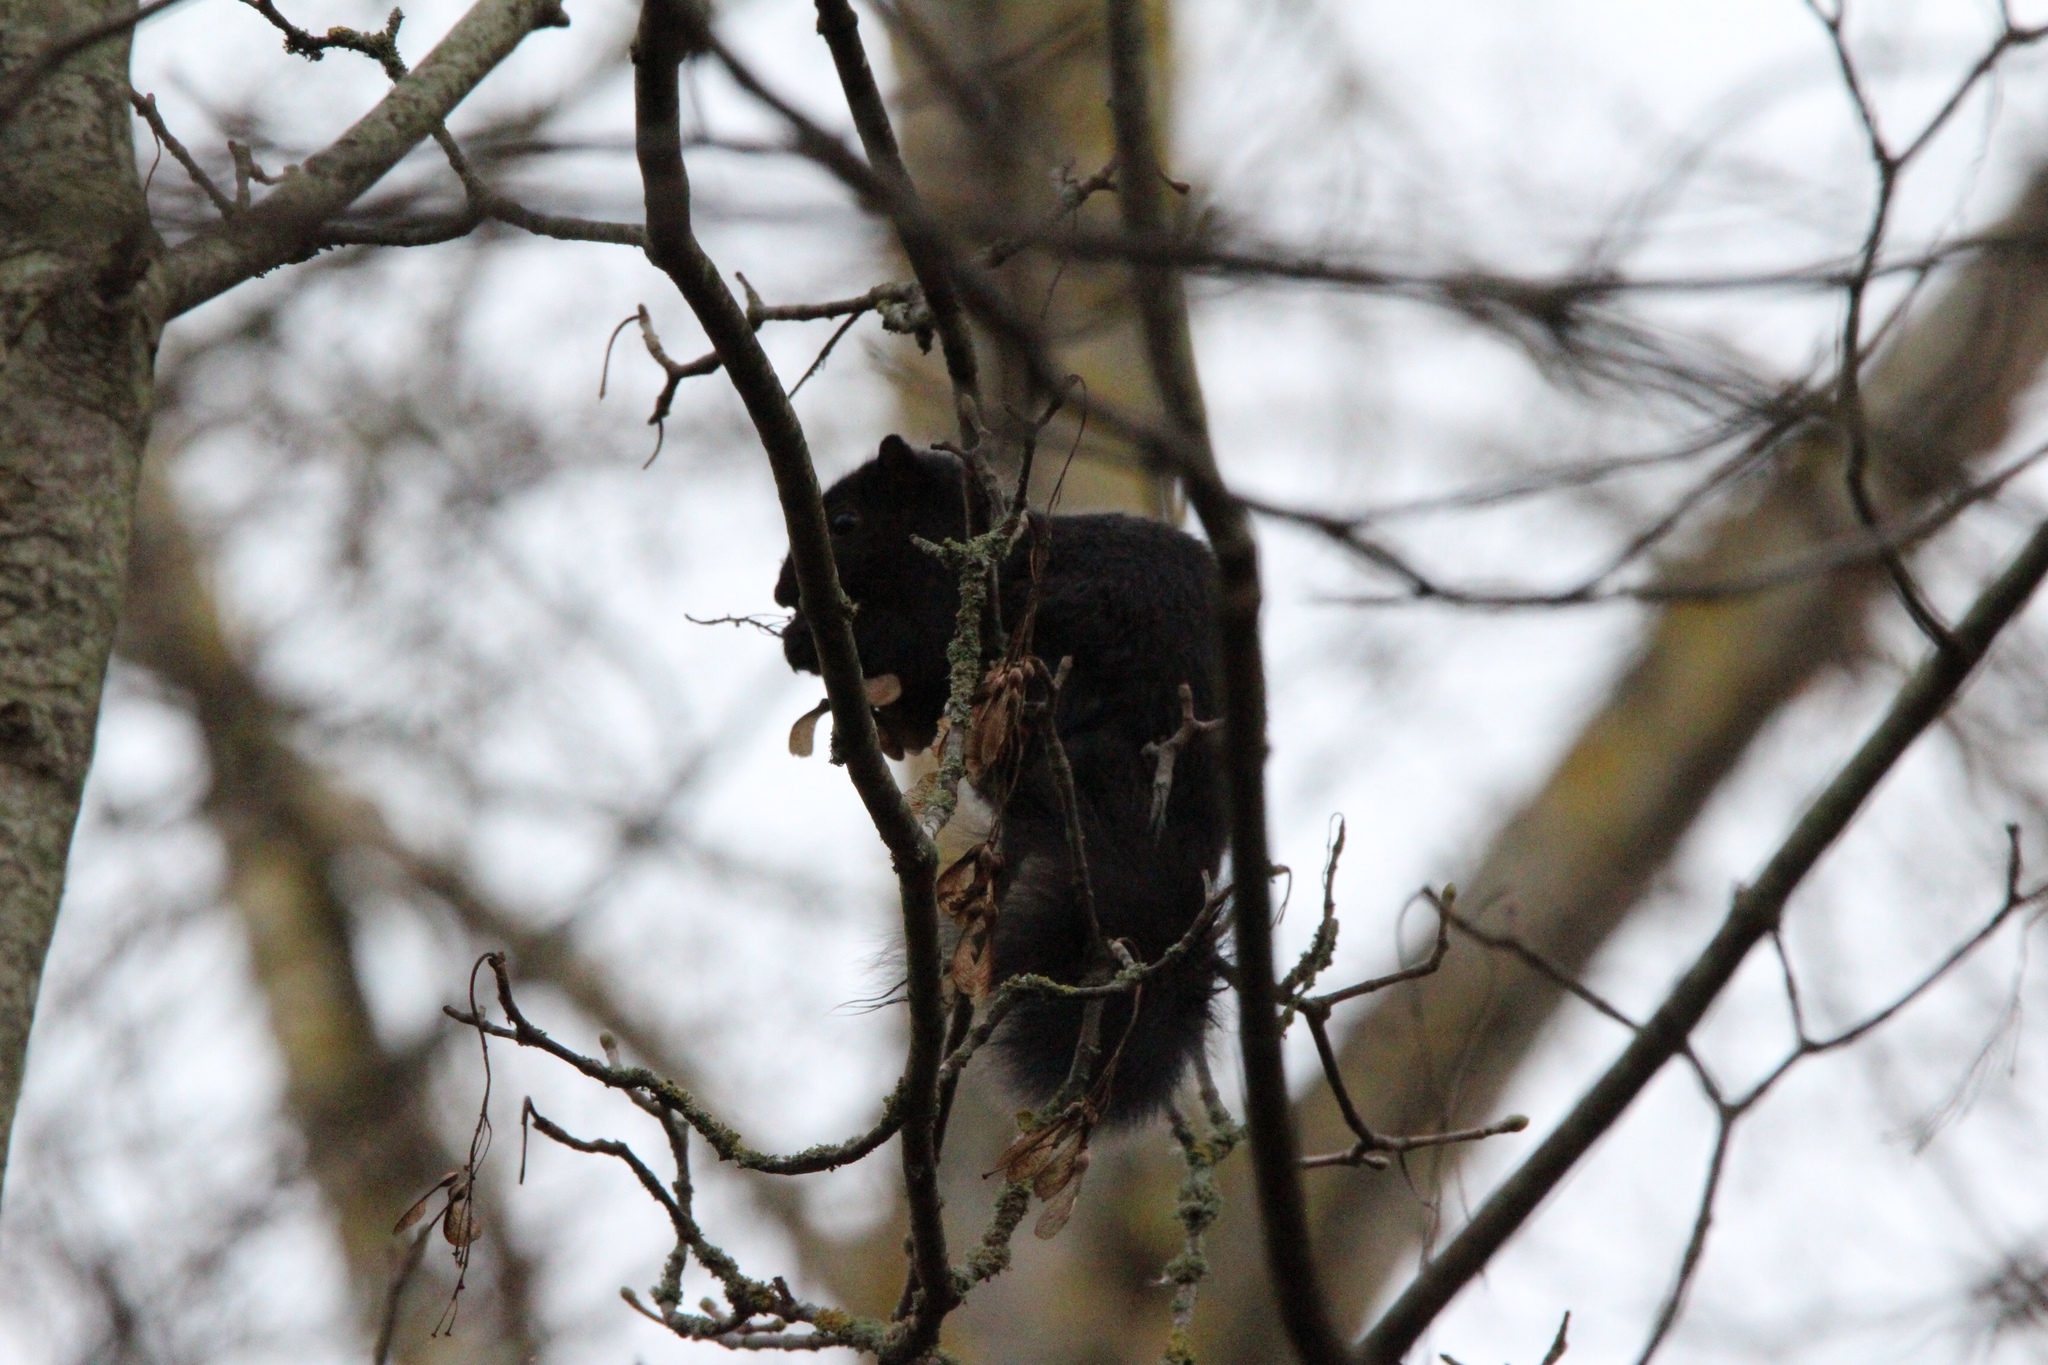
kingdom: Animalia
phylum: Chordata
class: Mammalia
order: Rodentia
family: Sciuridae
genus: Sciurus
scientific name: Sciurus carolinensis
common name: Eastern gray squirrel
